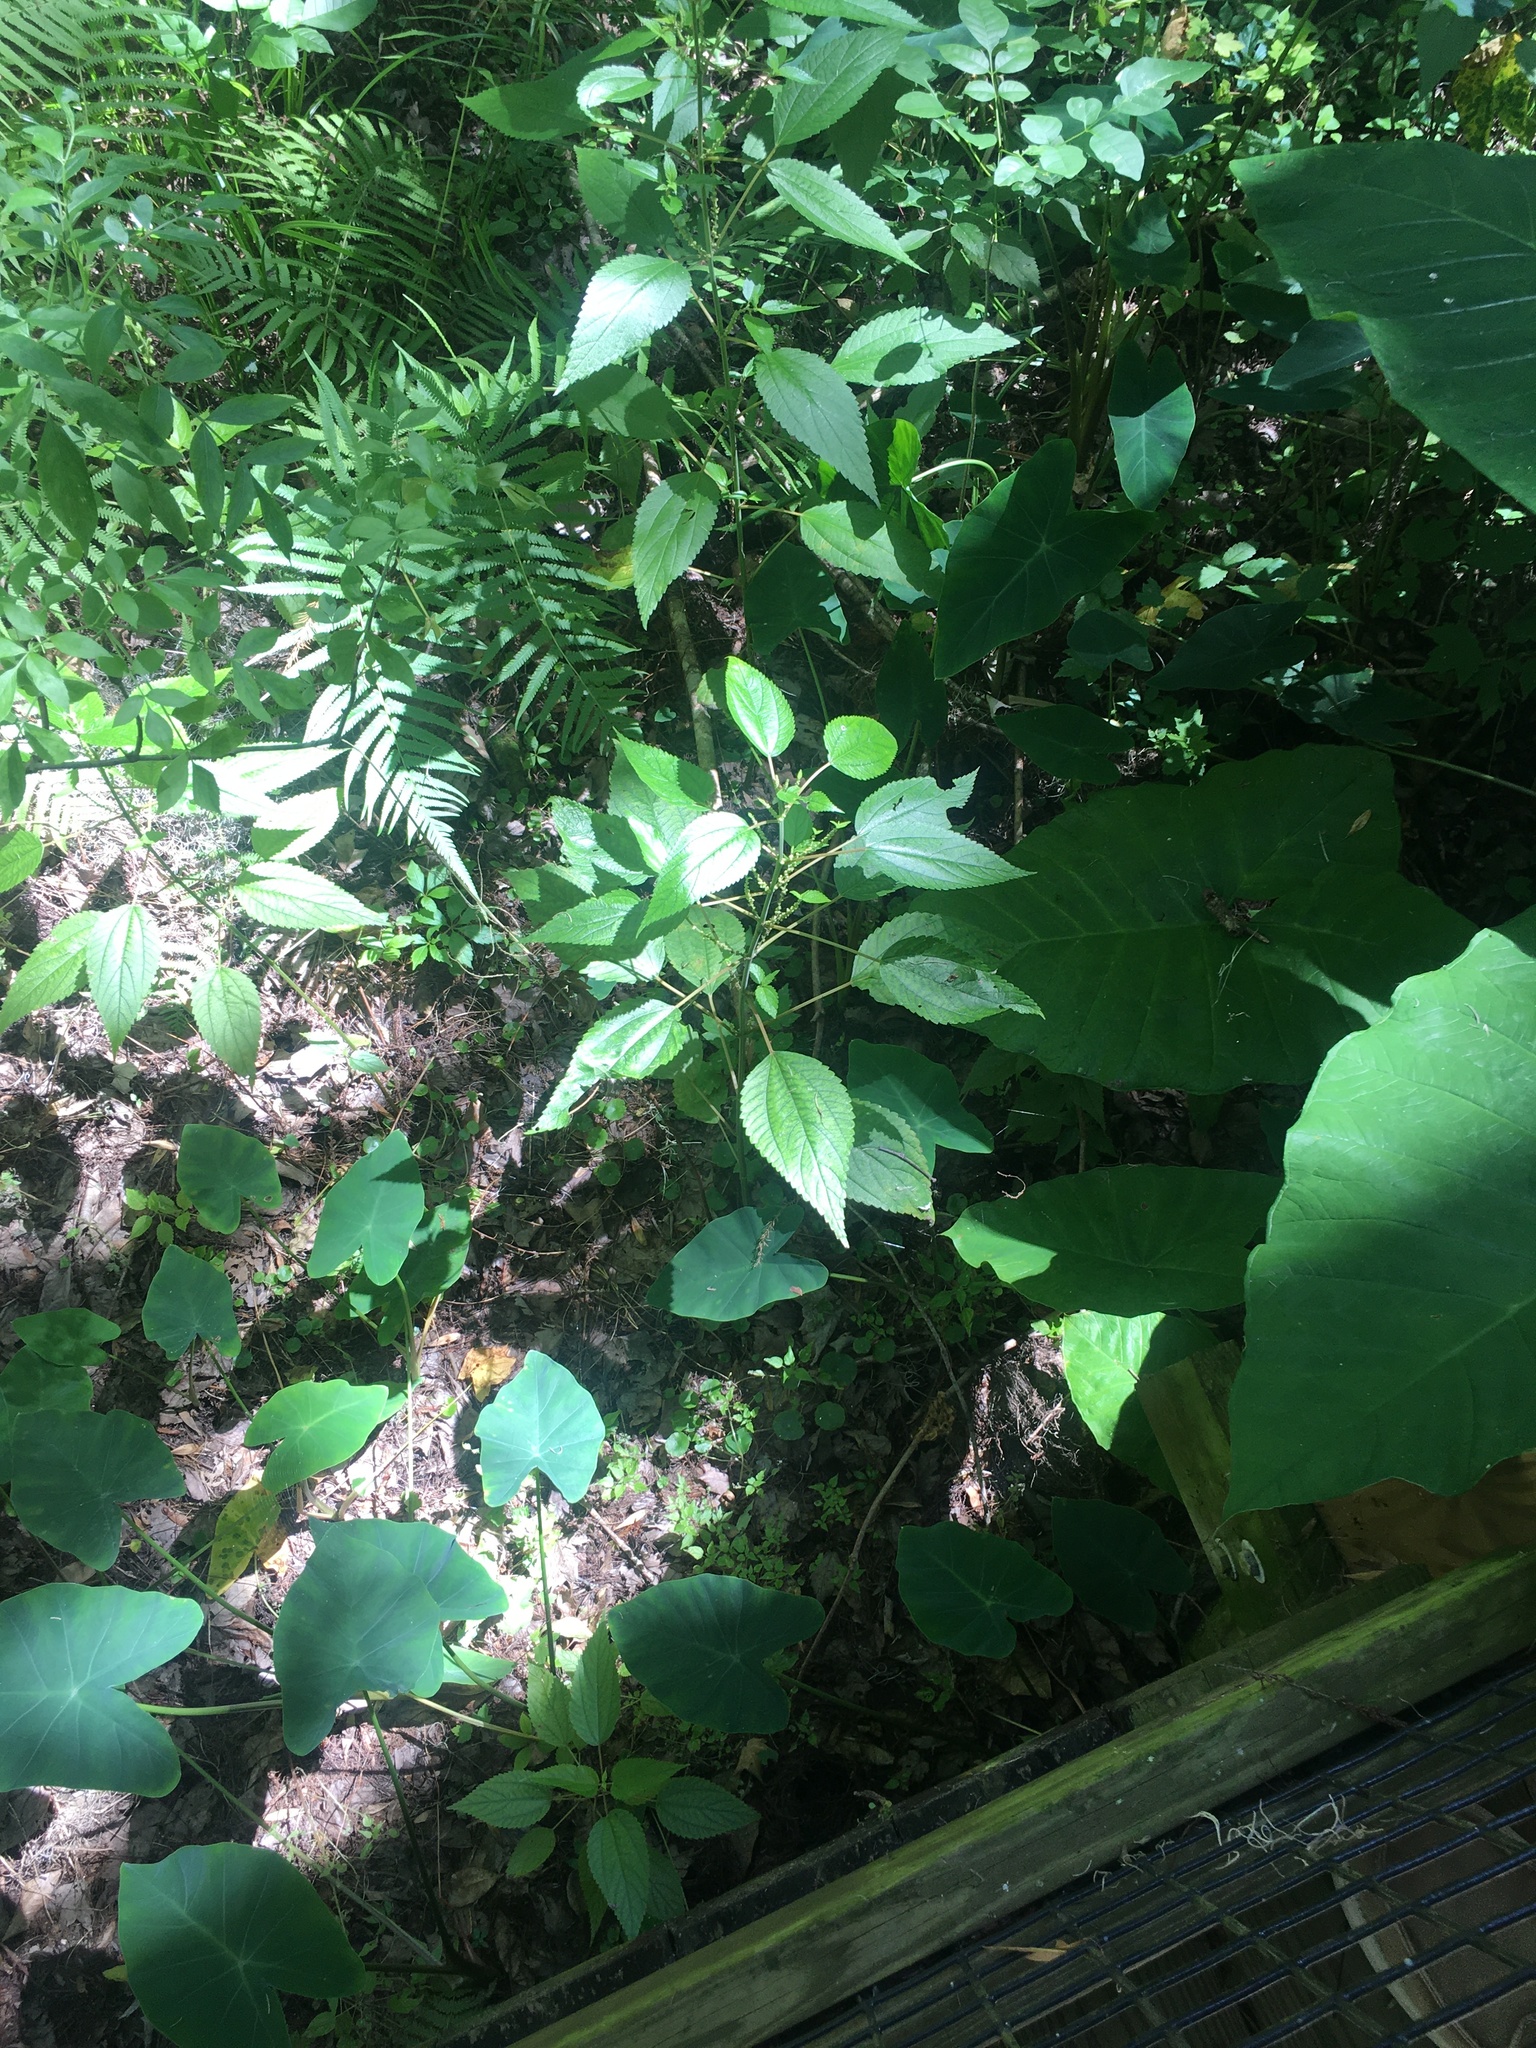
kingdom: Plantae
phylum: Tracheophyta
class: Magnoliopsida
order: Rosales
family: Urticaceae
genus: Boehmeria
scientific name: Boehmeria cylindrica
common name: Bog-hemp
